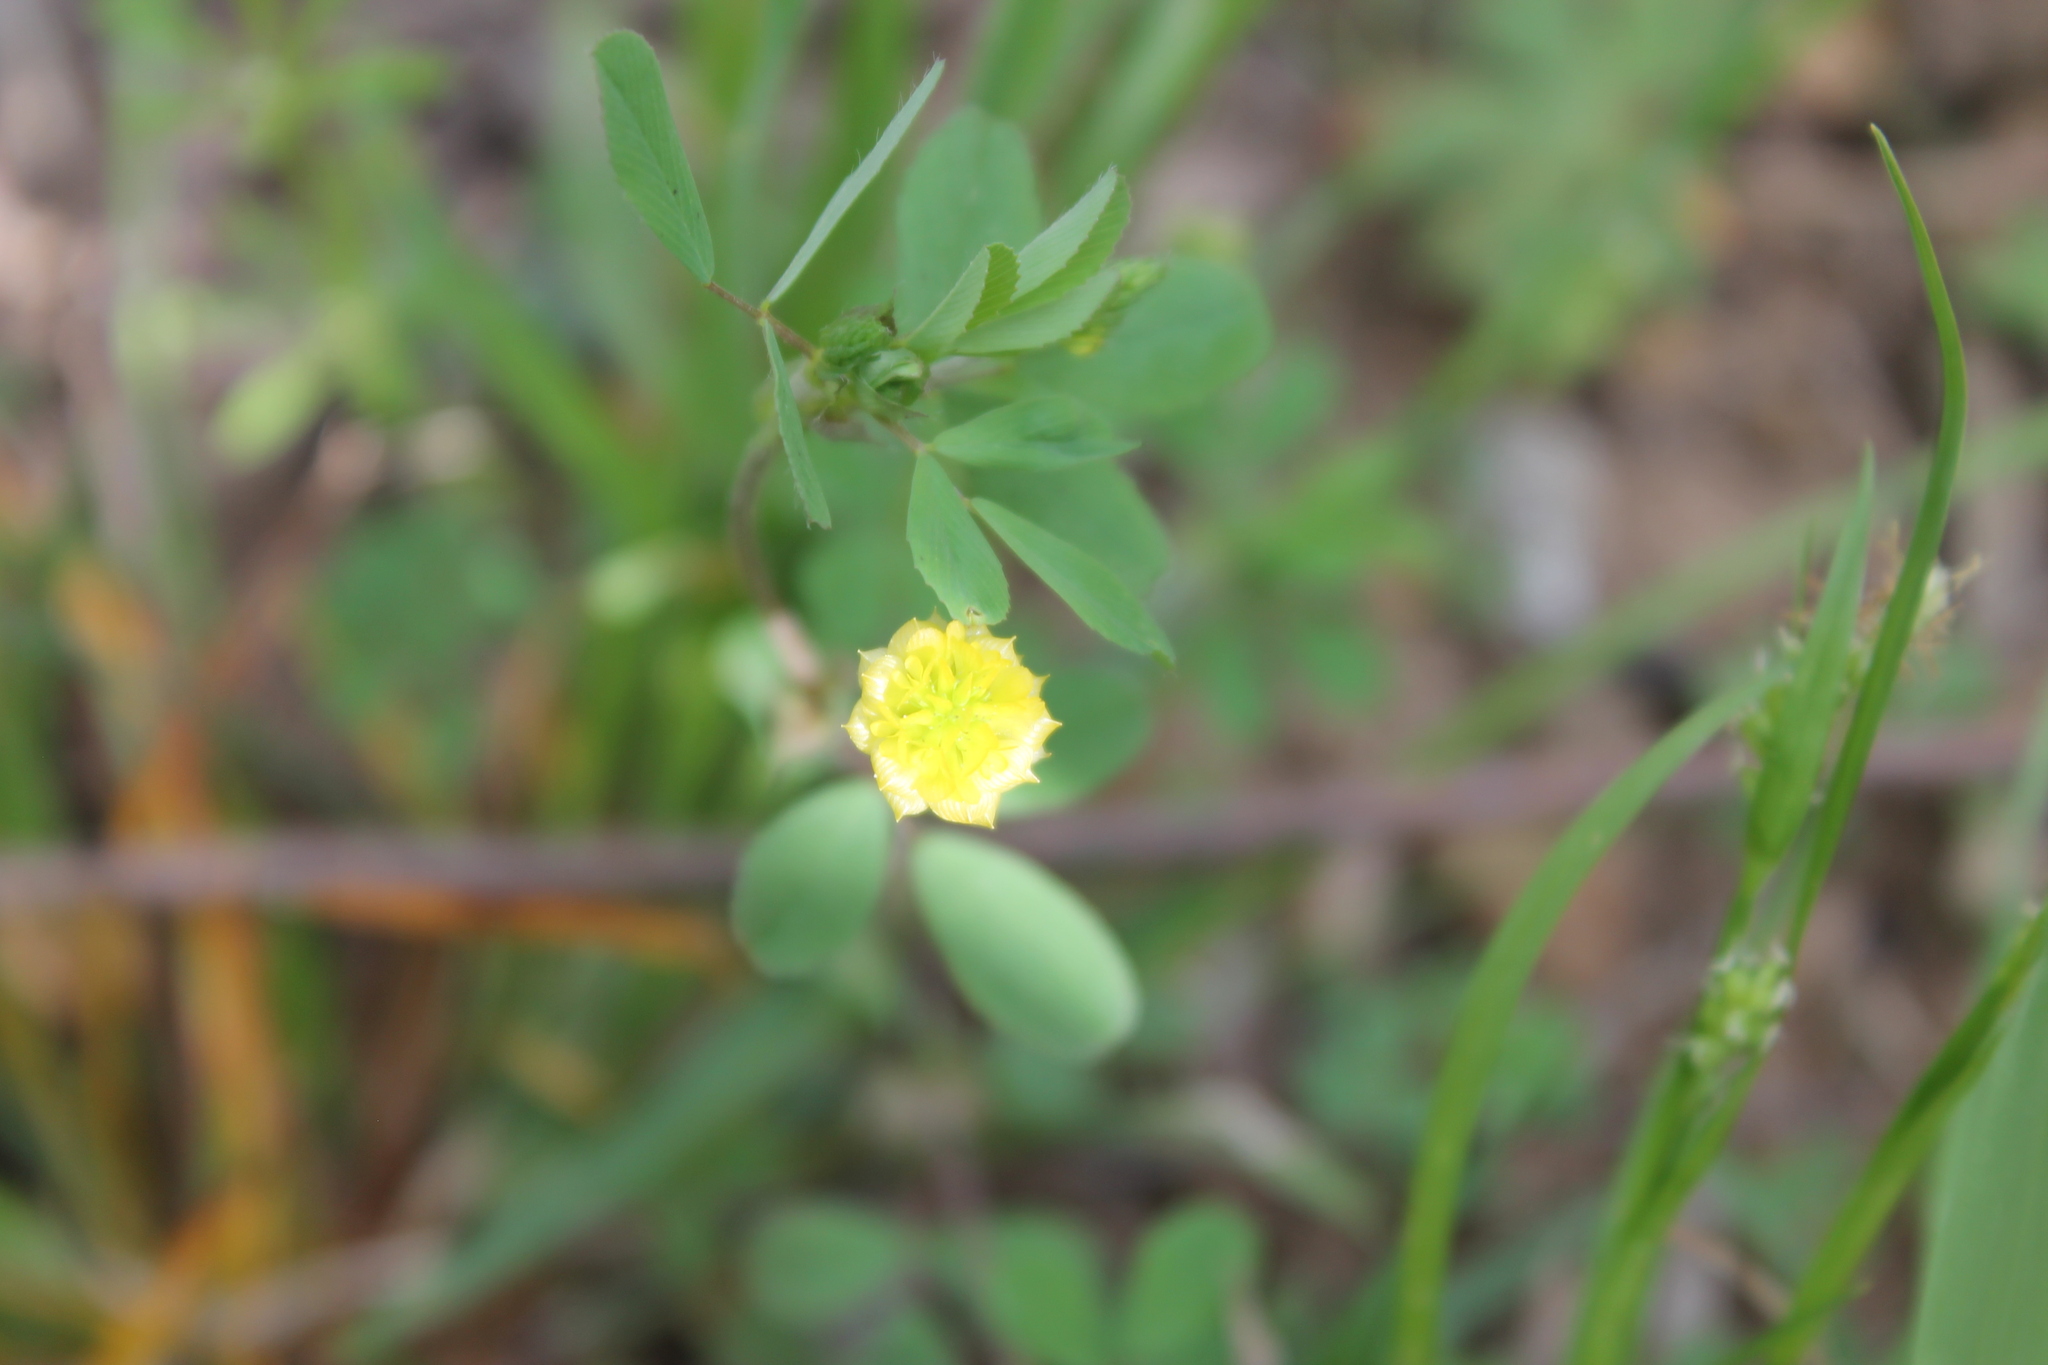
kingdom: Plantae
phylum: Tracheophyta
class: Magnoliopsida
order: Fabales
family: Fabaceae
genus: Trifolium
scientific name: Trifolium campestre
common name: Field clover
